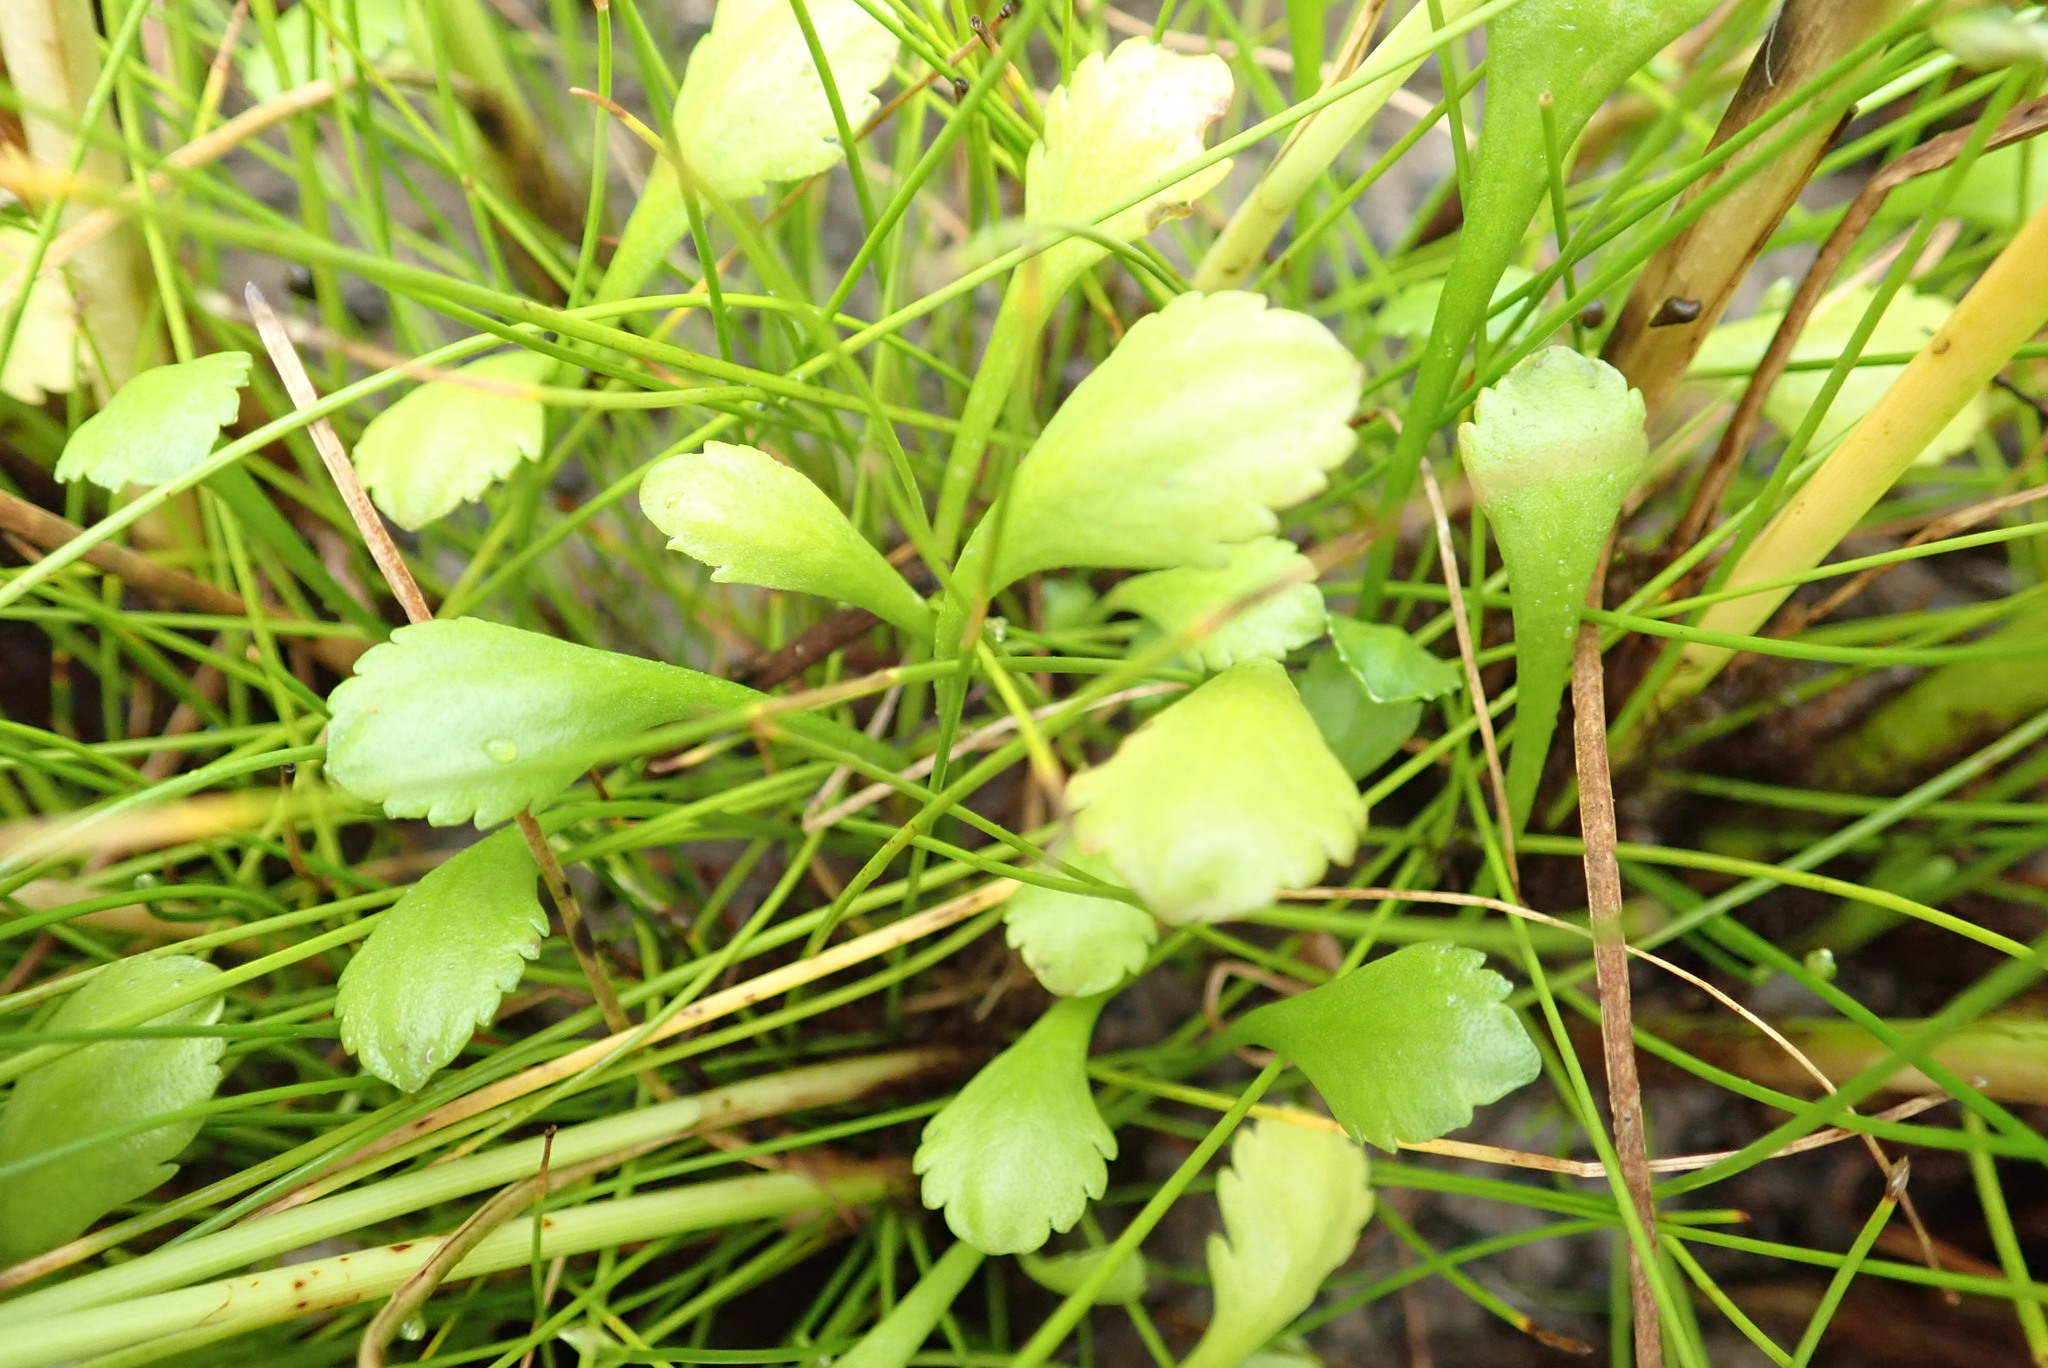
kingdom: Plantae
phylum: Tracheophyta
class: Magnoliopsida
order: Asterales
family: Asteraceae
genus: Leptinella
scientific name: Leptinella dioica
